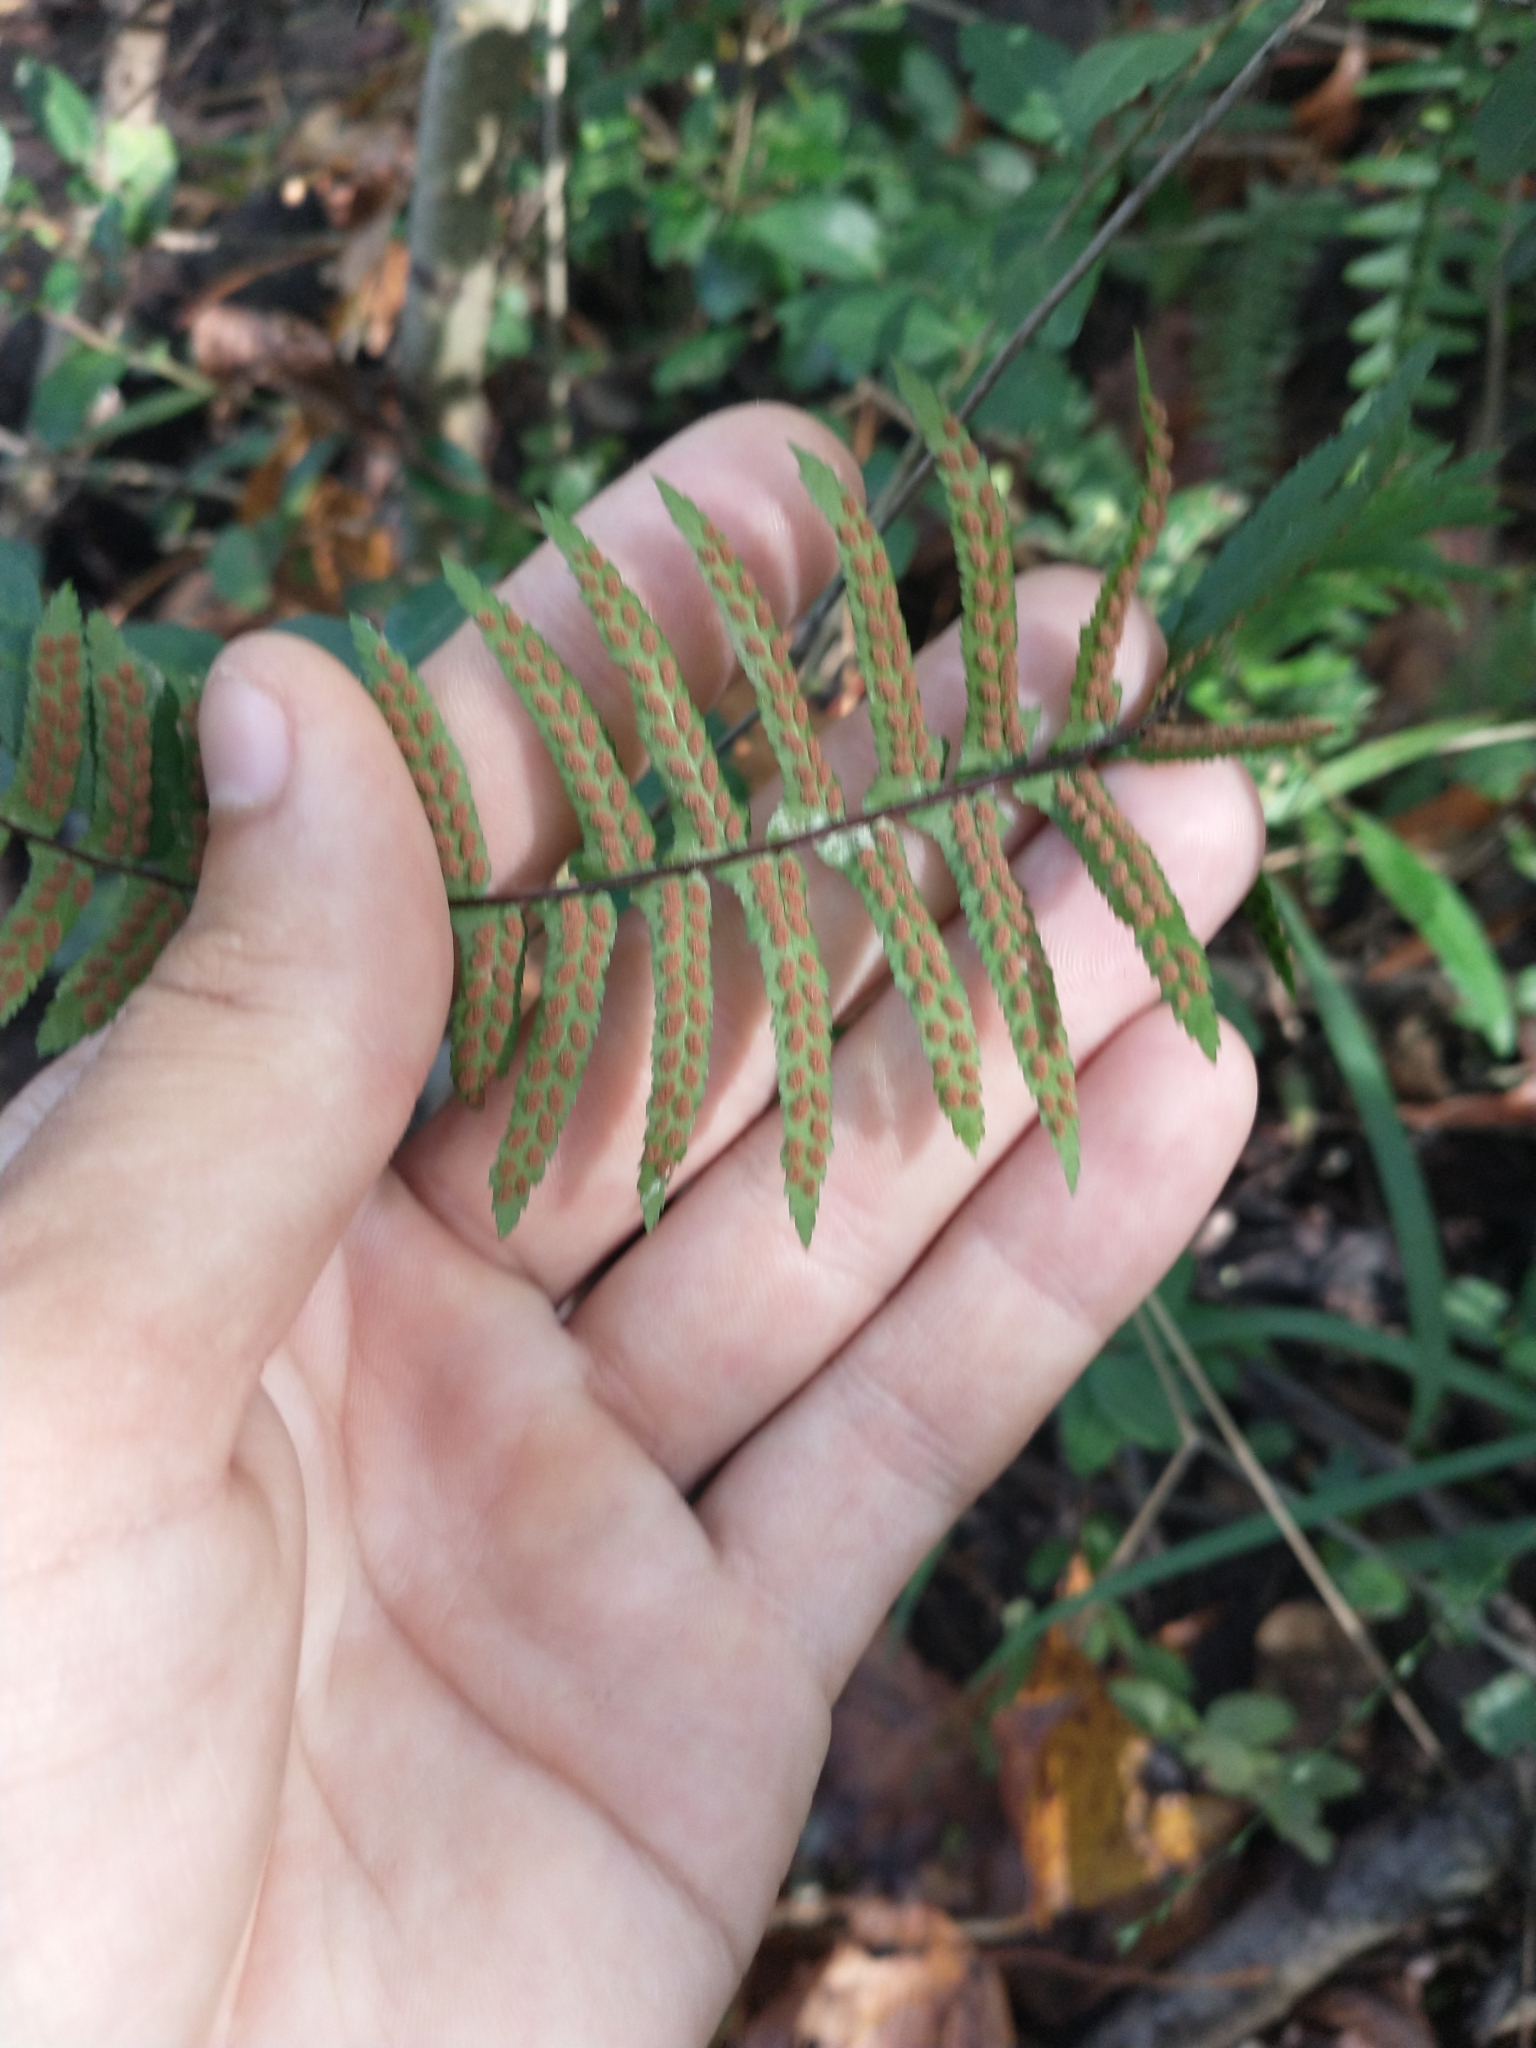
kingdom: Plantae
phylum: Tracheophyta
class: Polypodiopsida
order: Polypodiales
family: Aspleniaceae
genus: Asplenium
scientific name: Asplenium platyneuron
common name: Ebony spleenwort
